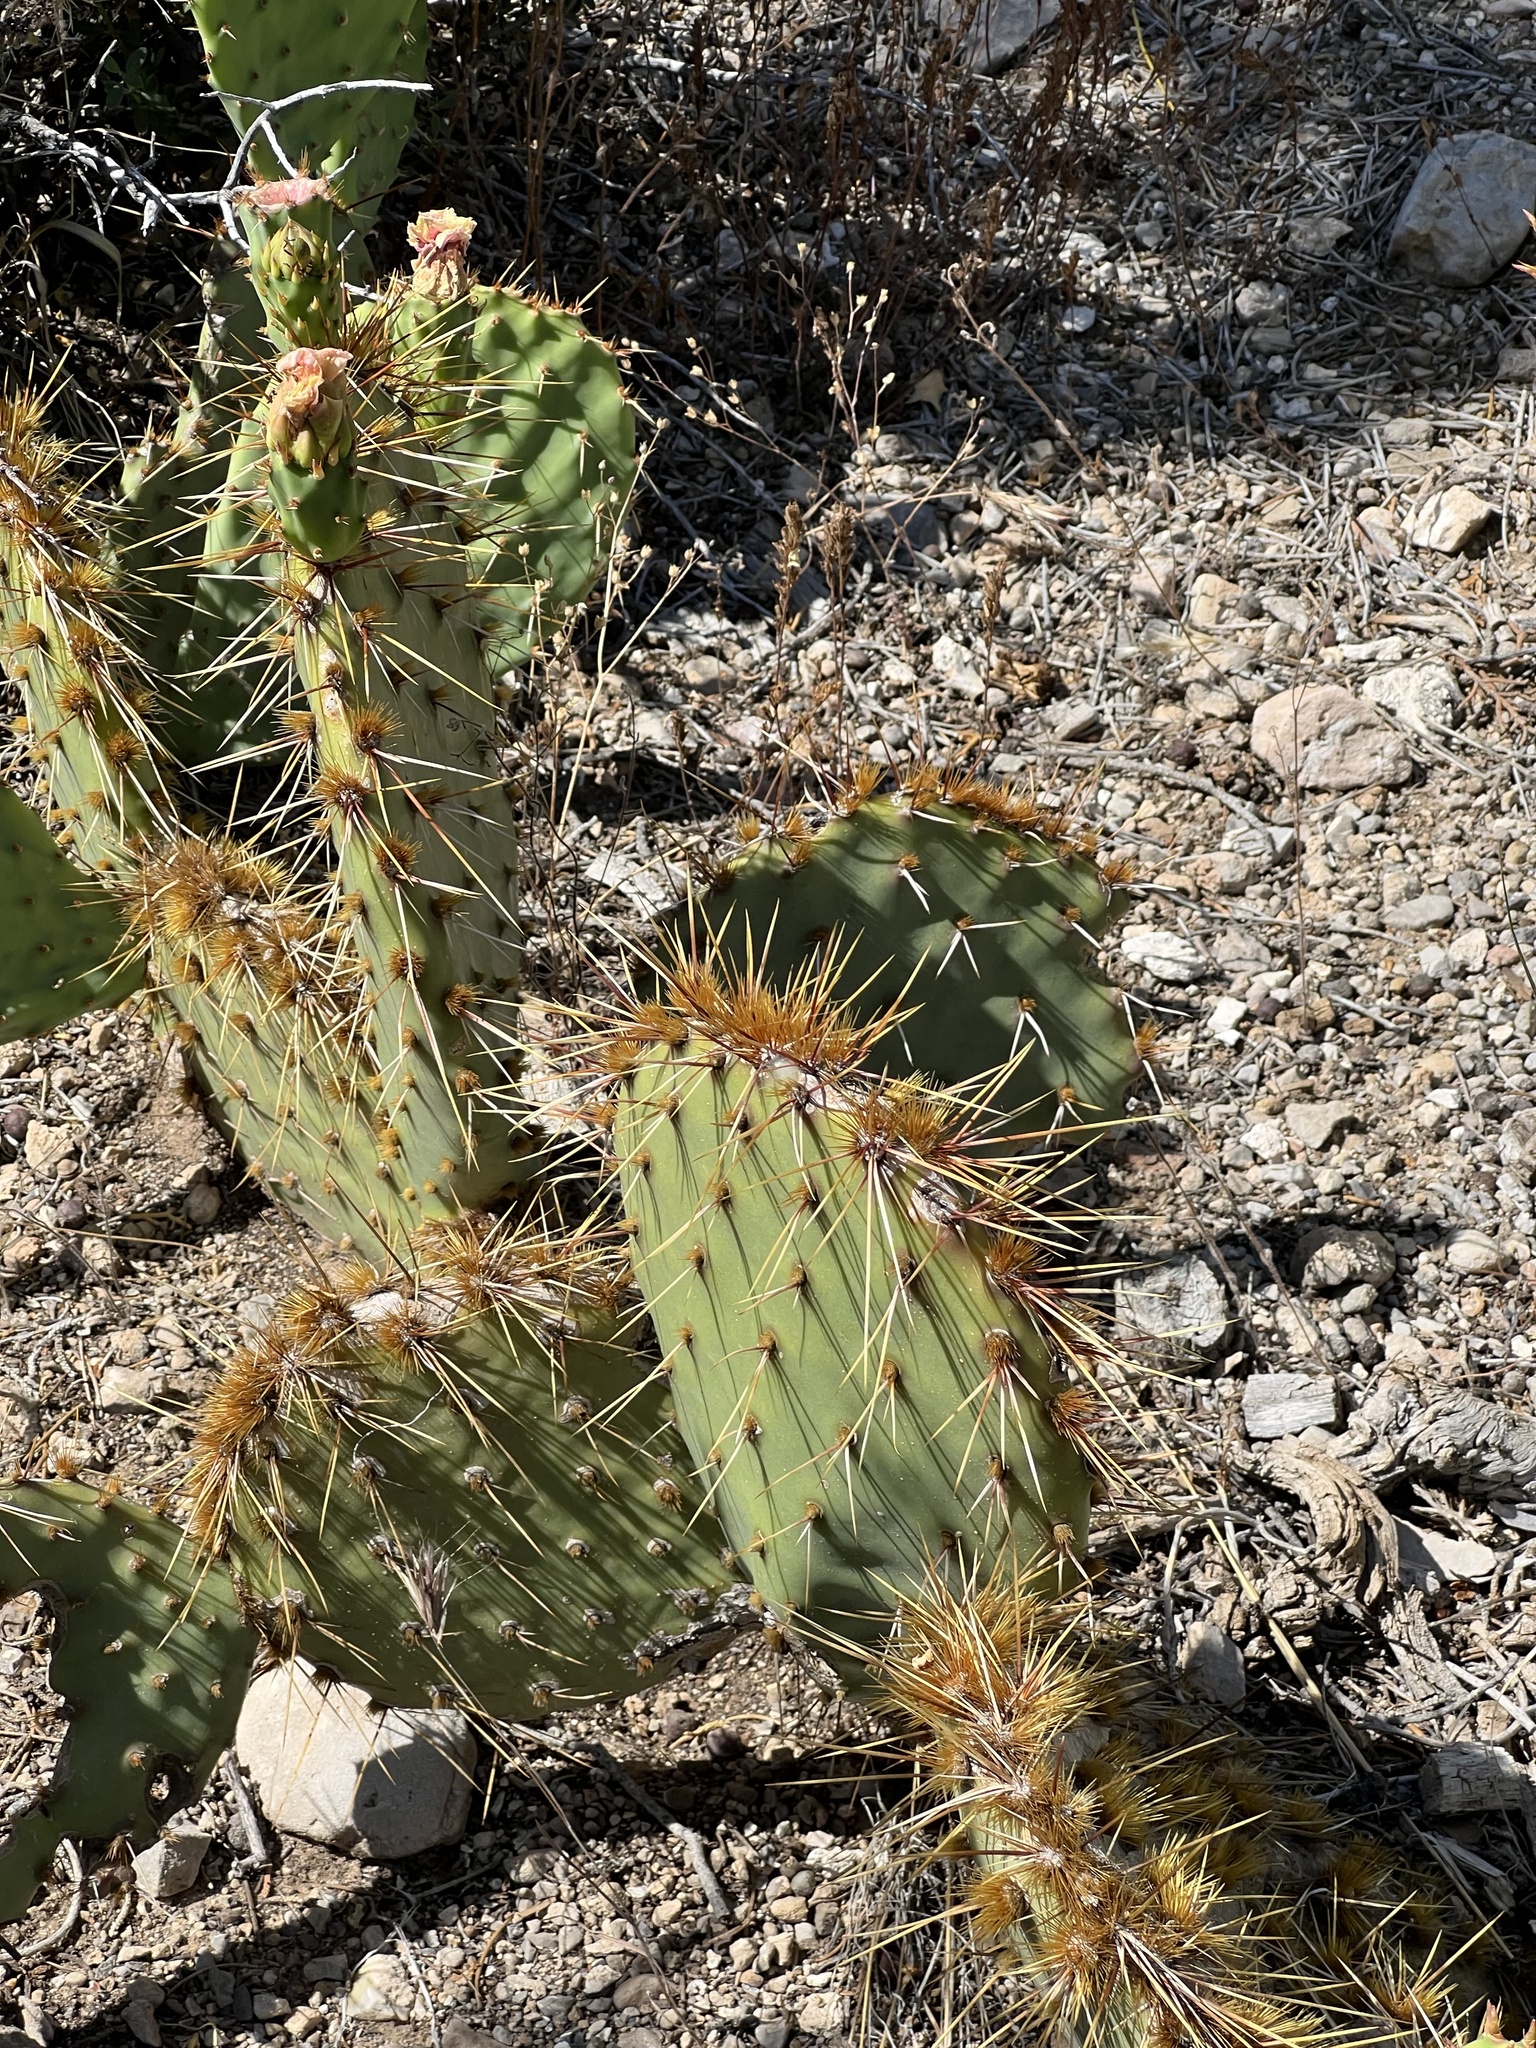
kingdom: Plantae
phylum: Tracheophyta
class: Magnoliopsida
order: Caryophyllales
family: Cactaceae
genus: Opuntia
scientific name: Opuntia phaeacantha
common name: New mexico prickly-pear
